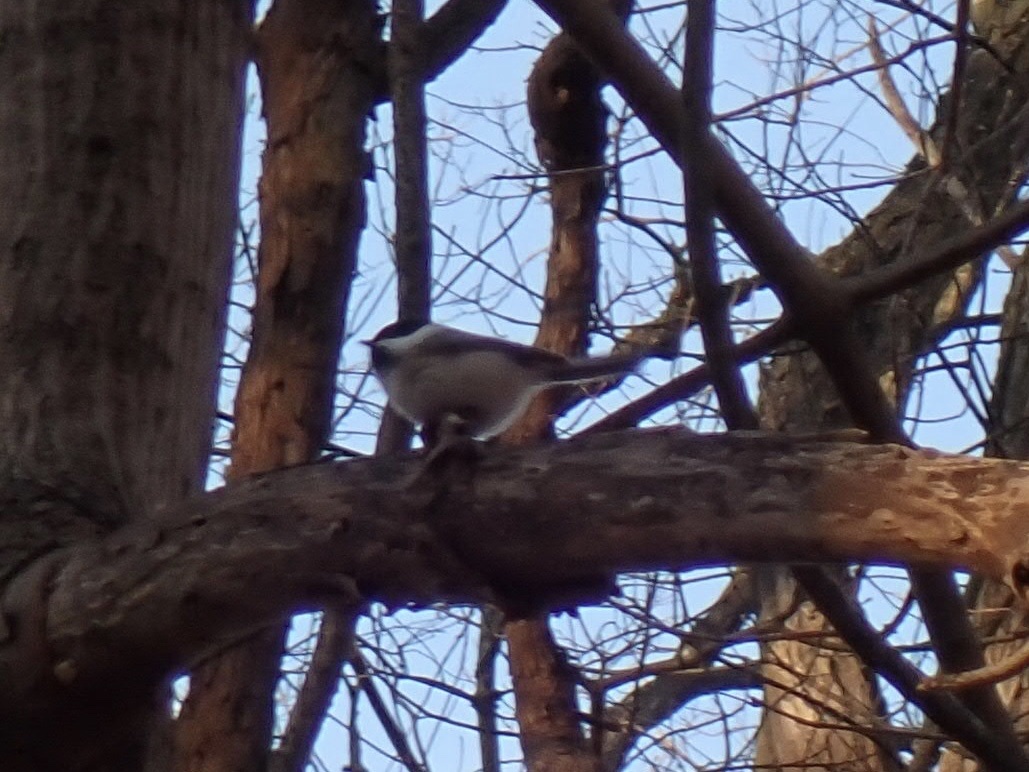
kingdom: Animalia
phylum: Chordata
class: Aves
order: Passeriformes
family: Paridae
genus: Poecile
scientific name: Poecile atricapillus
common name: Black-capped chickadee
